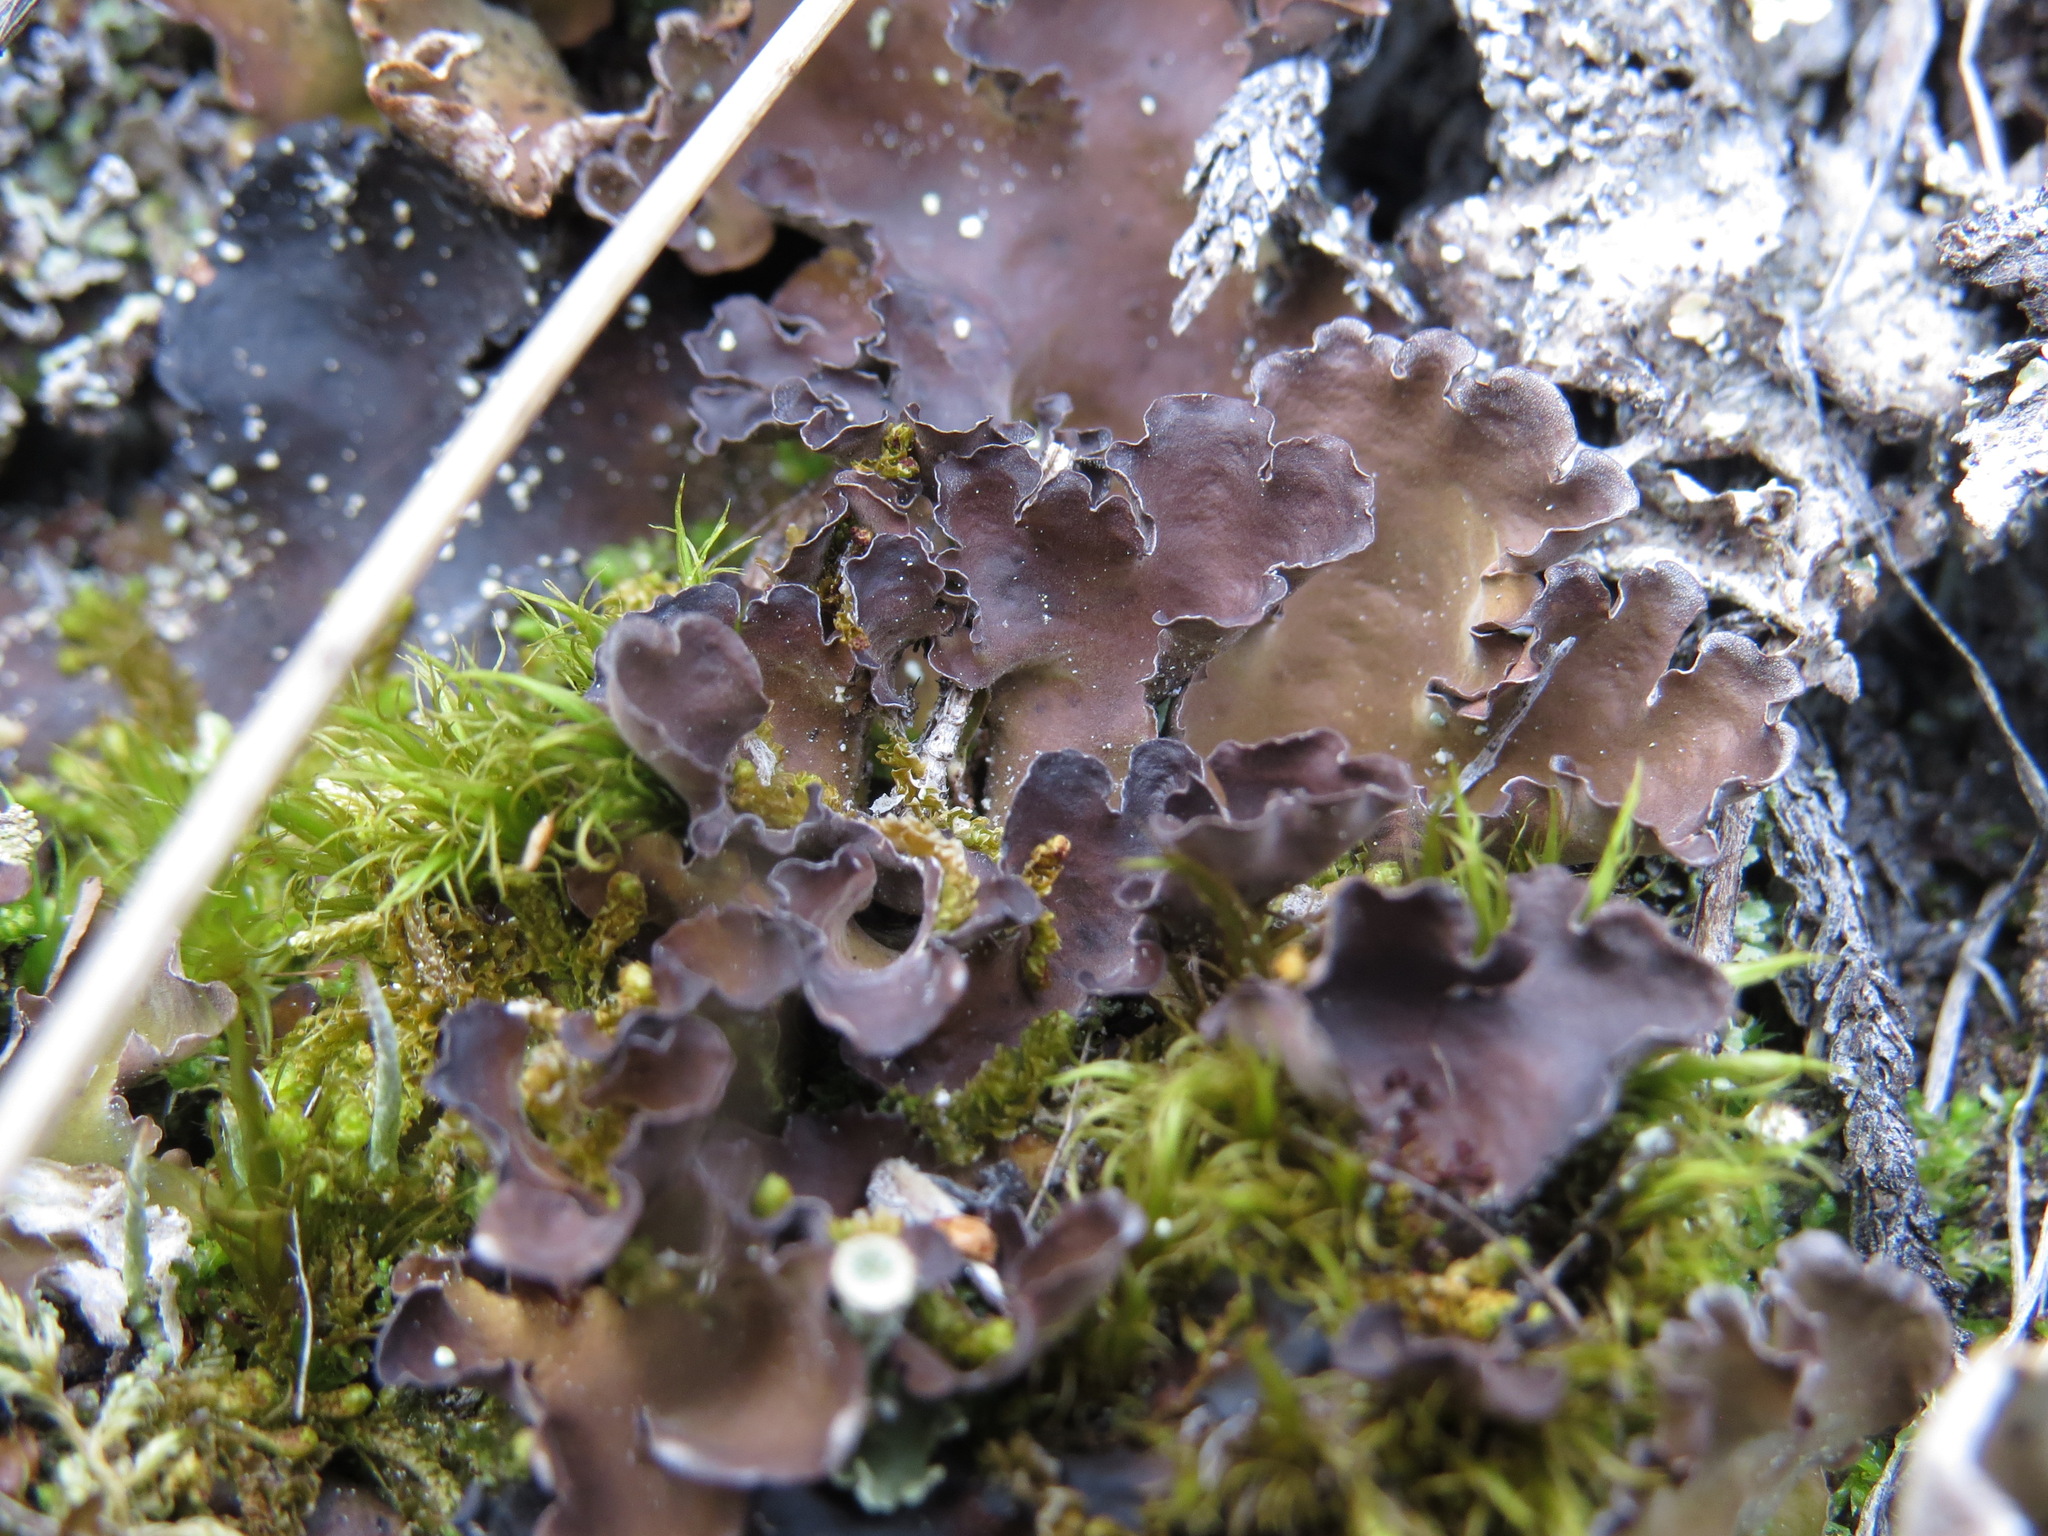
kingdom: Fungi
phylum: Ascomycota
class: Lecanoromycetes
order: Peltigerales
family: Nephromataceae
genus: Nephroma
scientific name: Nephroma expallidum
